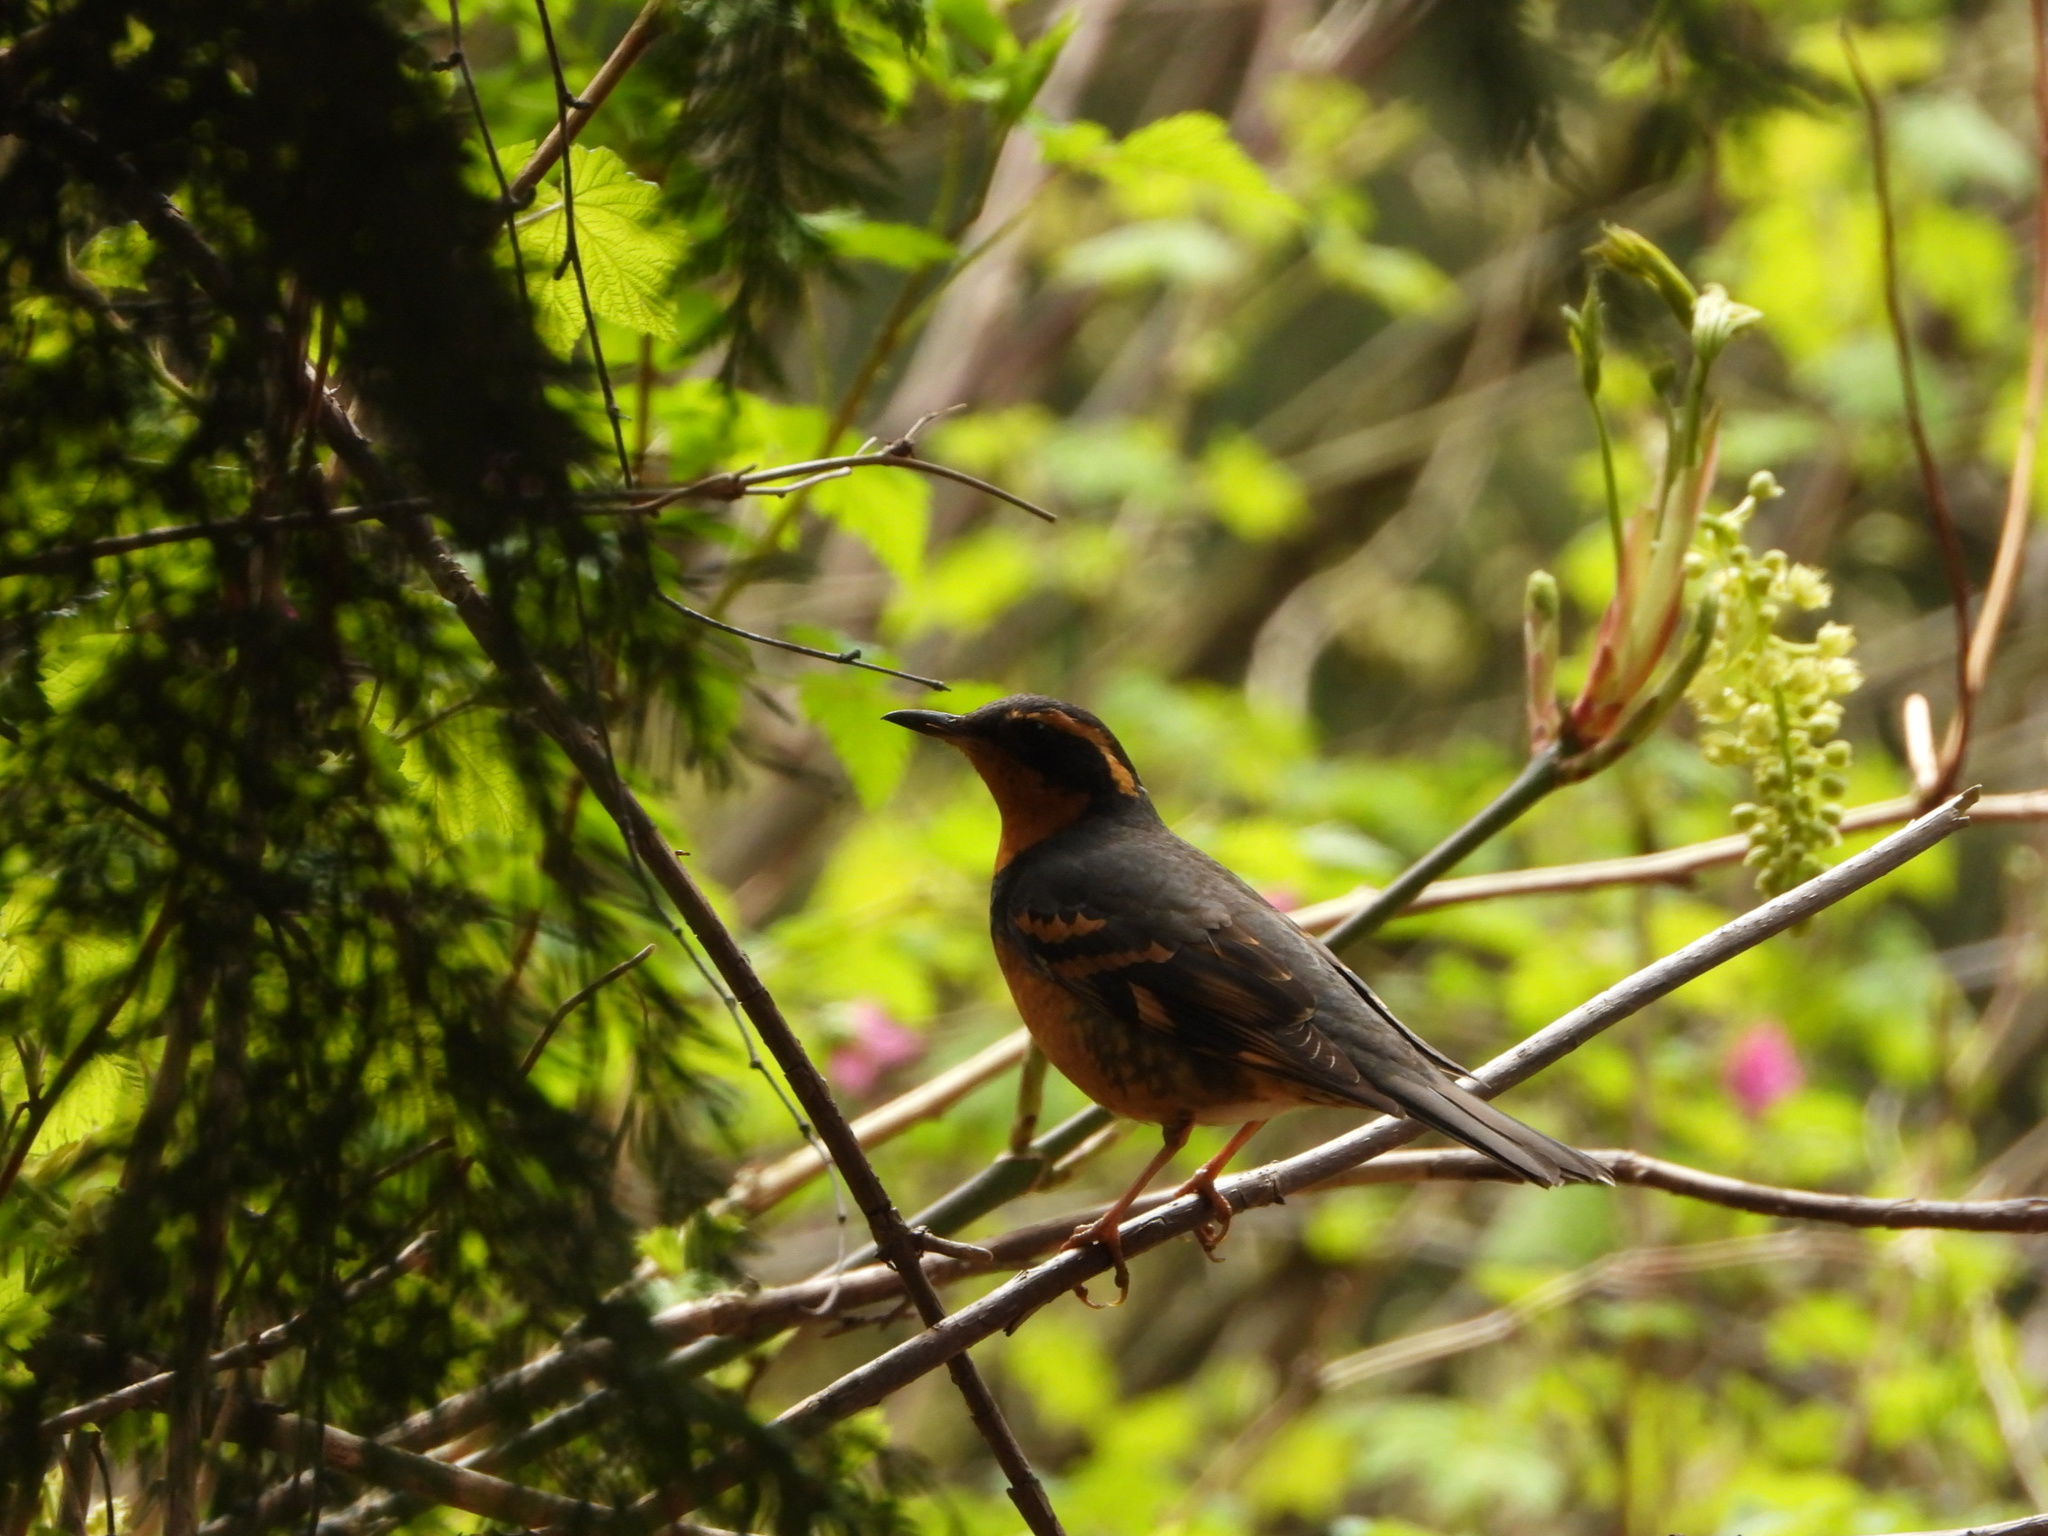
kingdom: Animalia
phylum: Chordata
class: Aves
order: Passeriformes
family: Turdidae
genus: Ixoreus
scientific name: Ixoreus naevius
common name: Varied thrush
